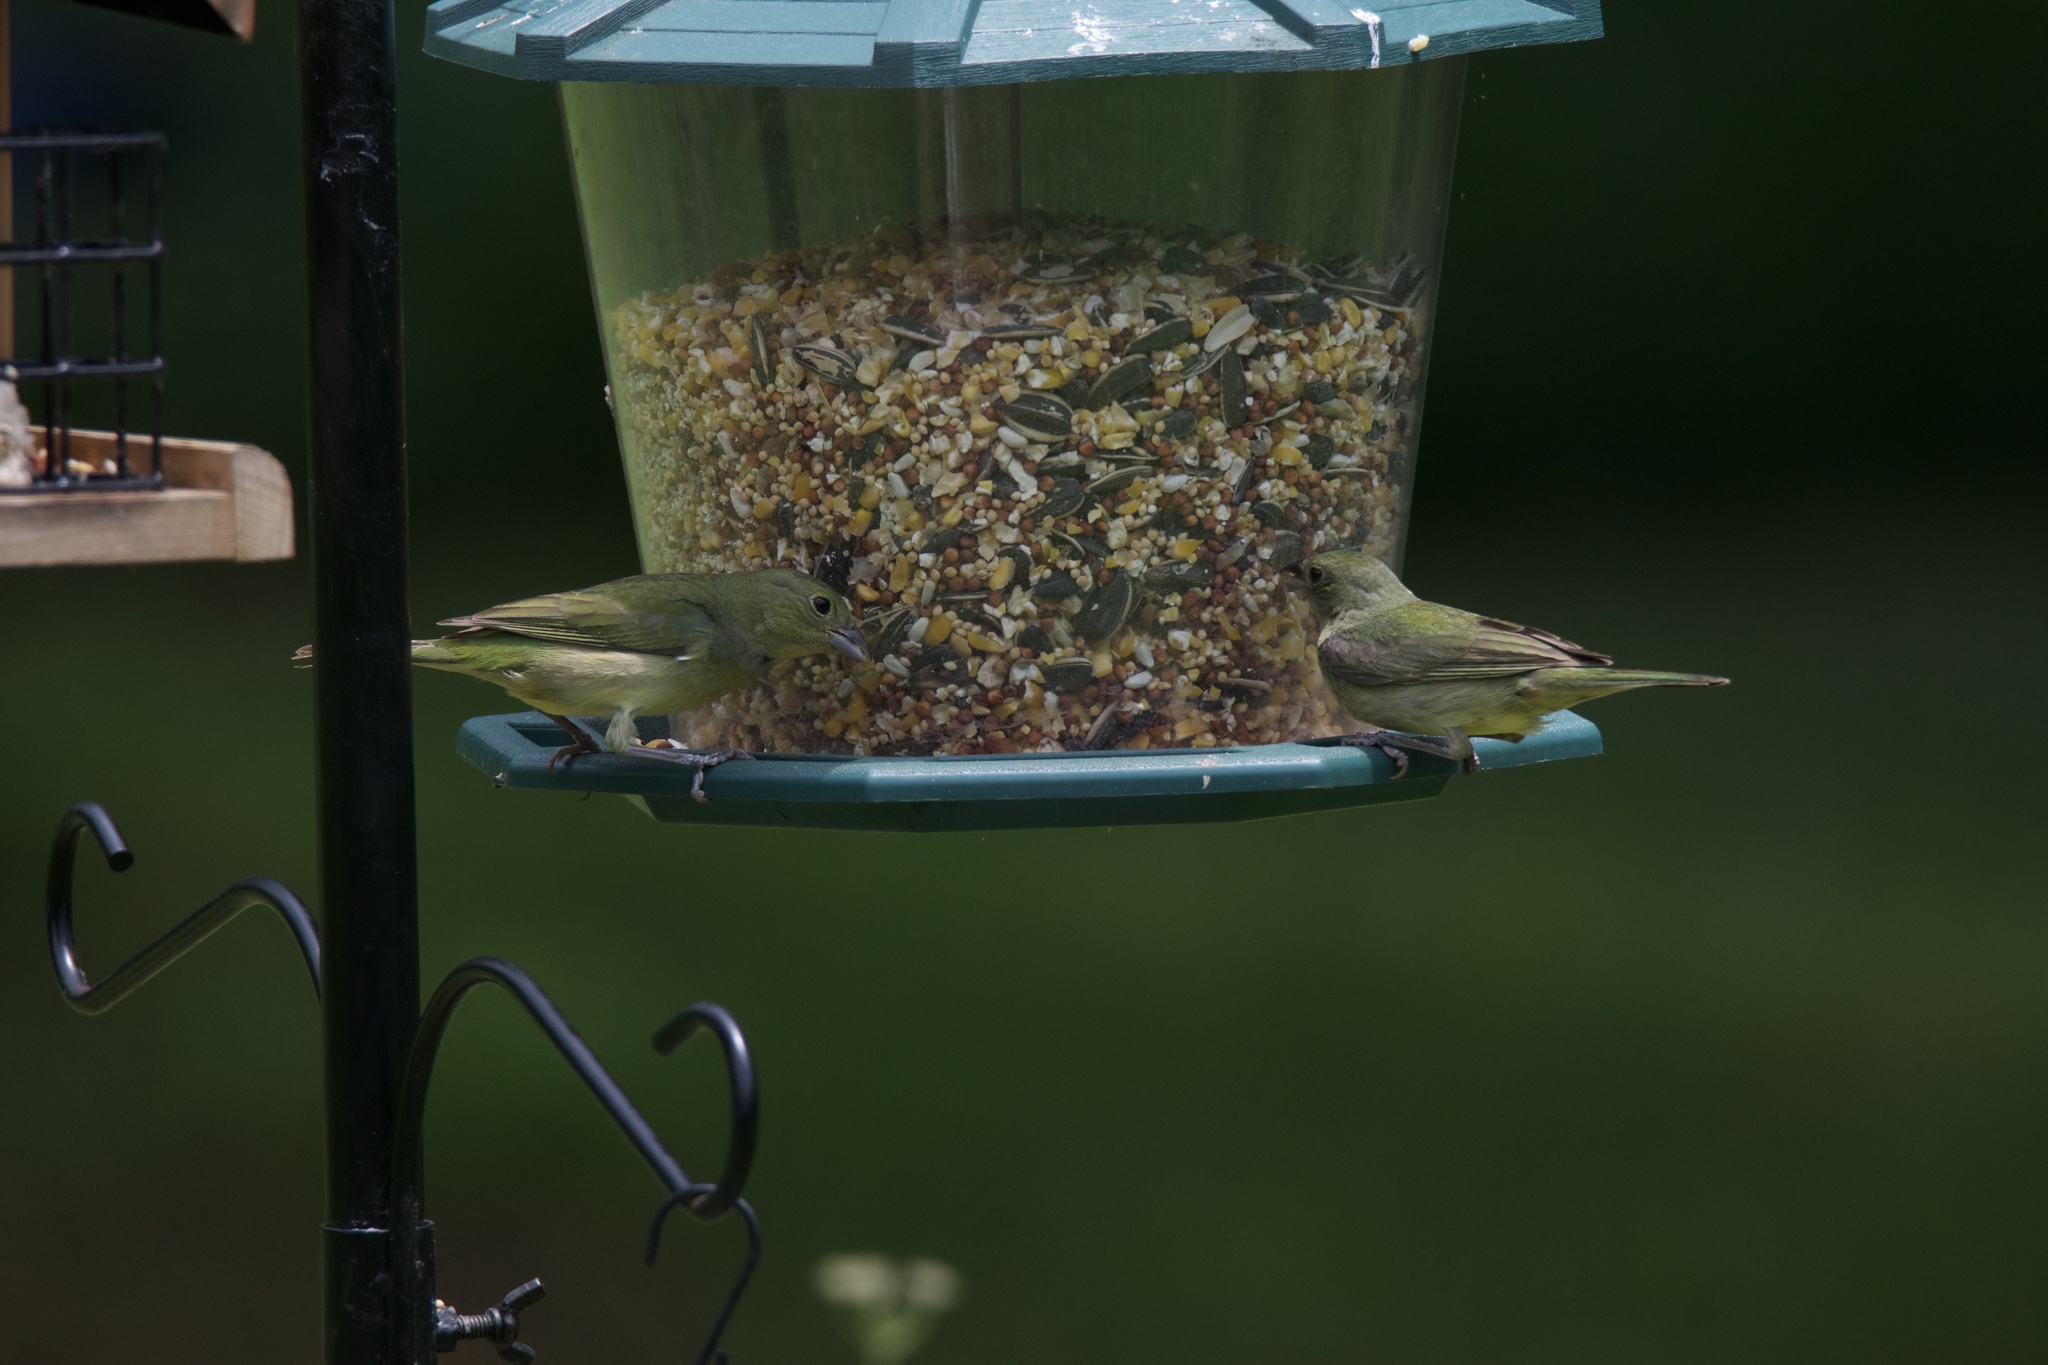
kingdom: Animalia
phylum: Chordata
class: Aves
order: Passeriformes
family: Cardinalidae
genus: Passerina
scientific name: Passerina ciris
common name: Painted bunting
